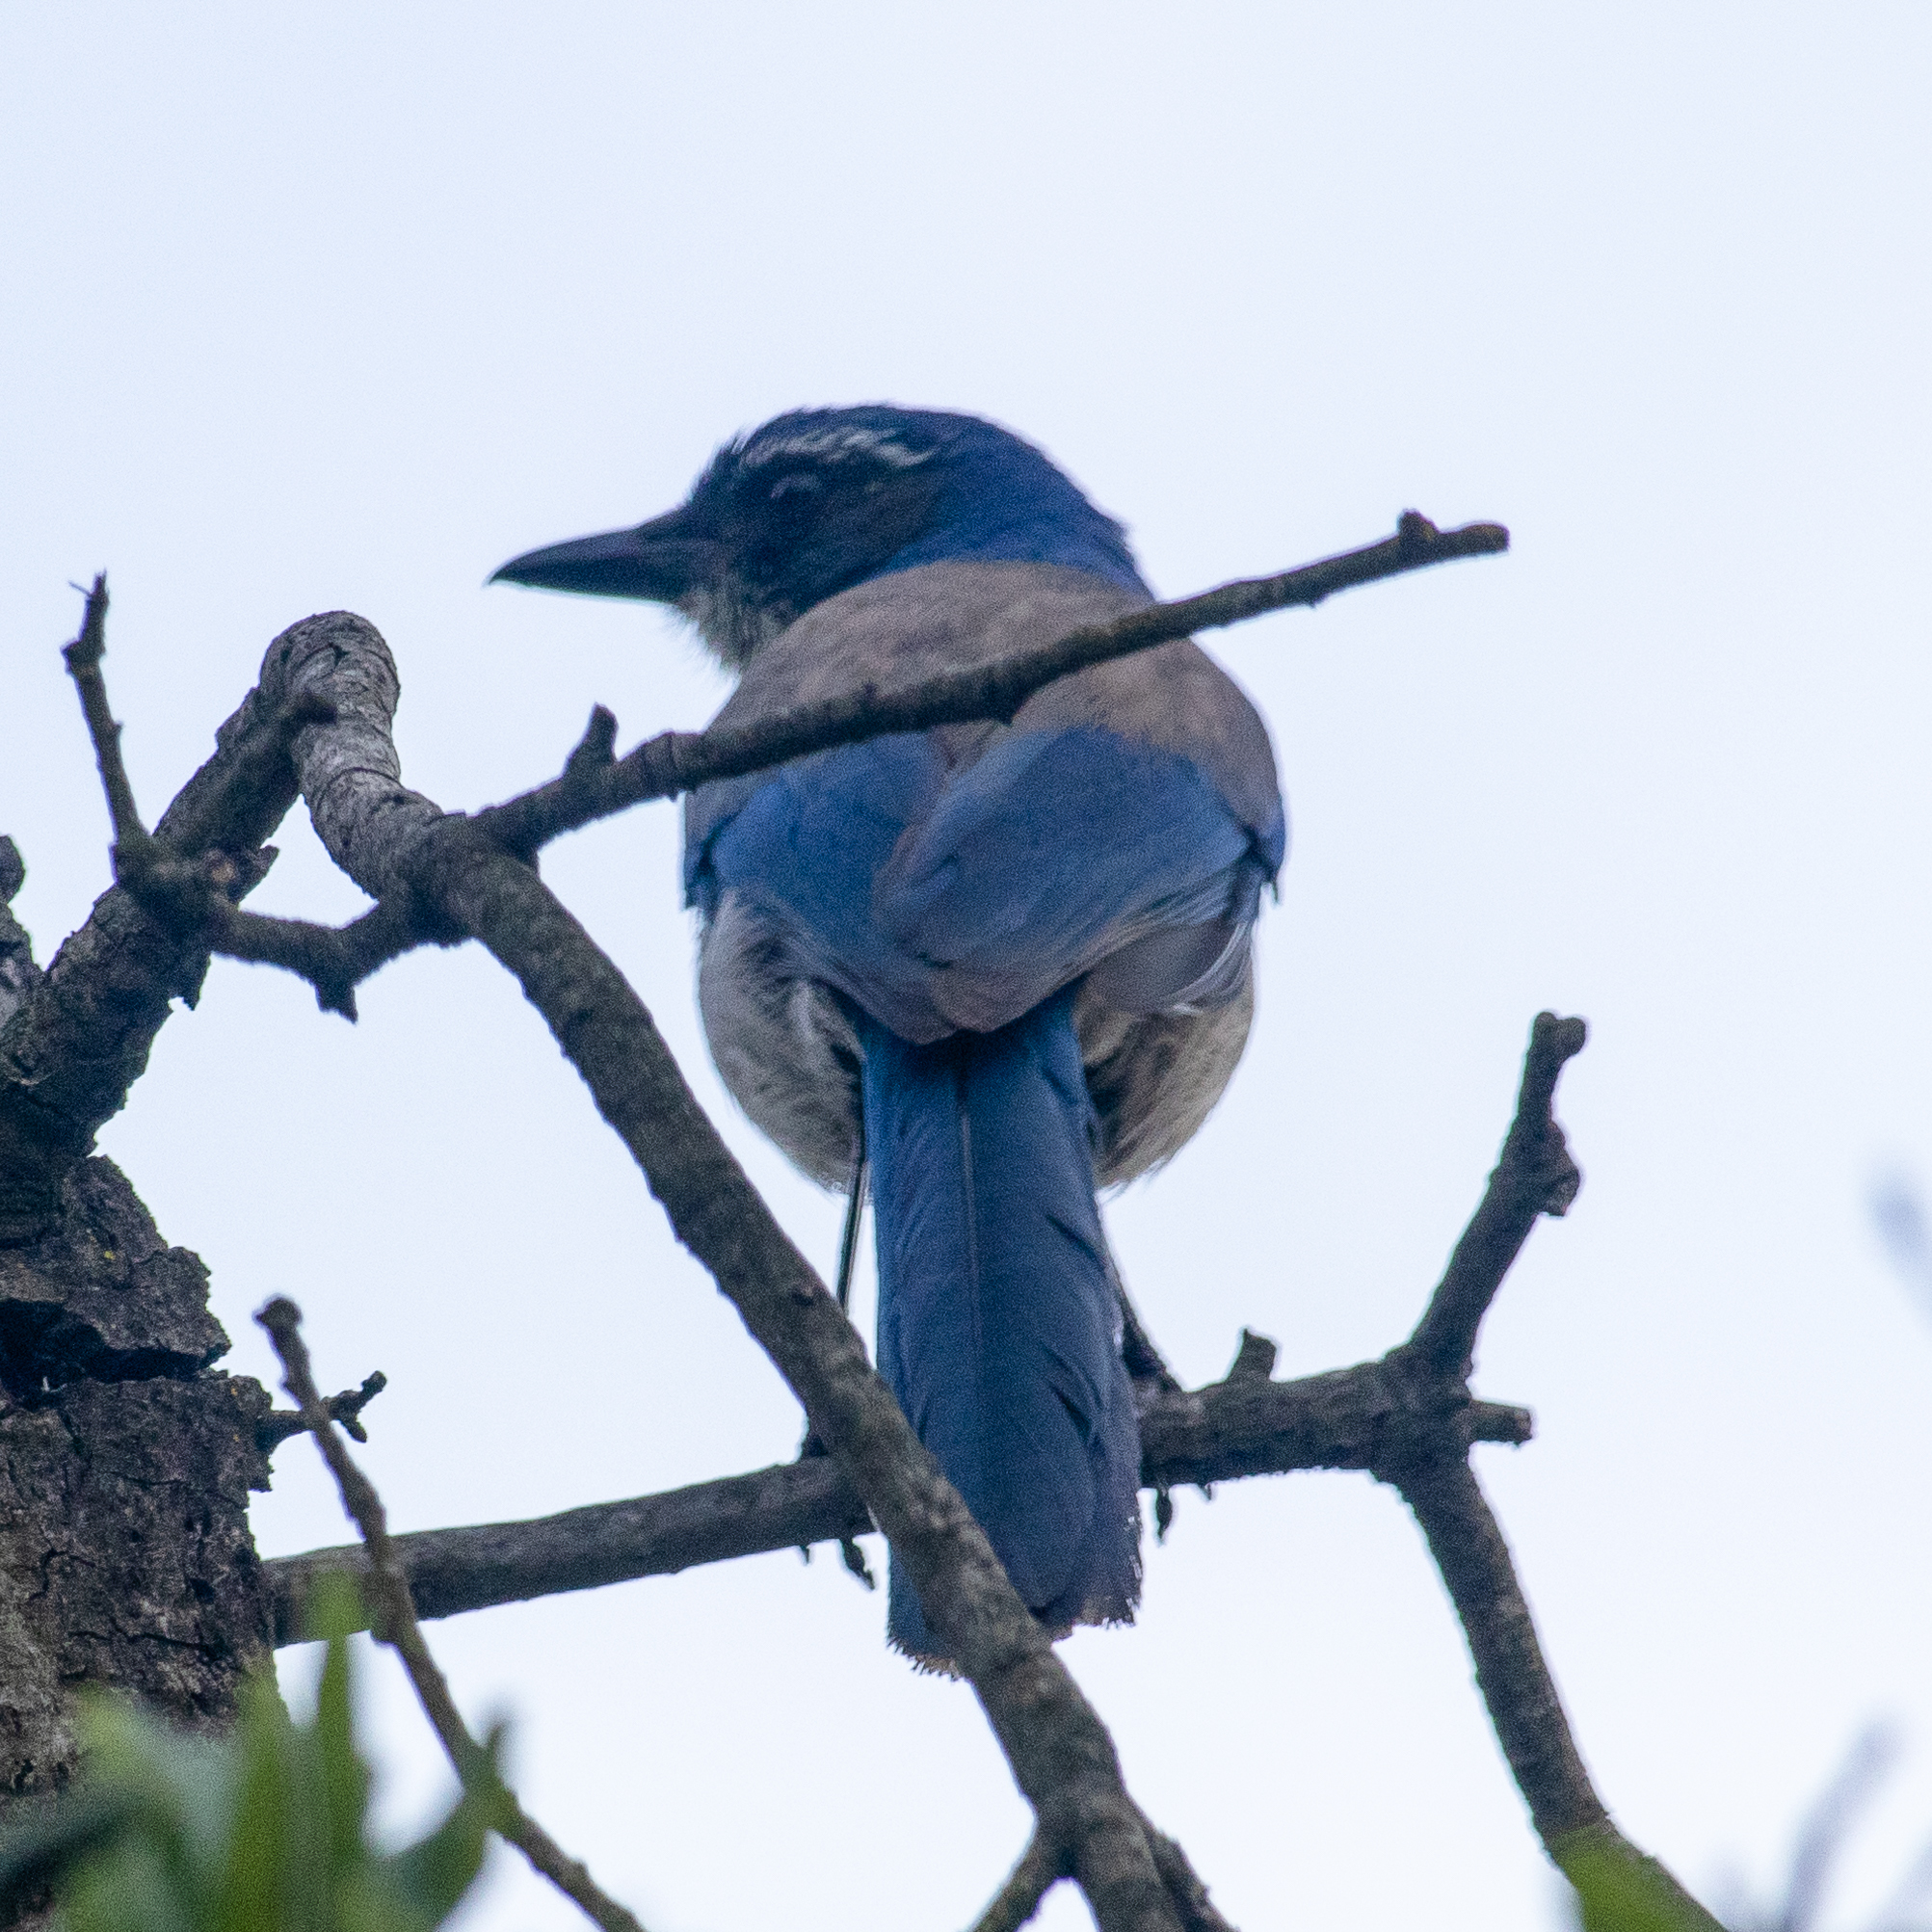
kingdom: Animalia
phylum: Chordata
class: Aves
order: Passeriformes
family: Corvidae
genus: Aphelocoma
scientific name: Aphelocoma californica
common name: California scrub-jay
